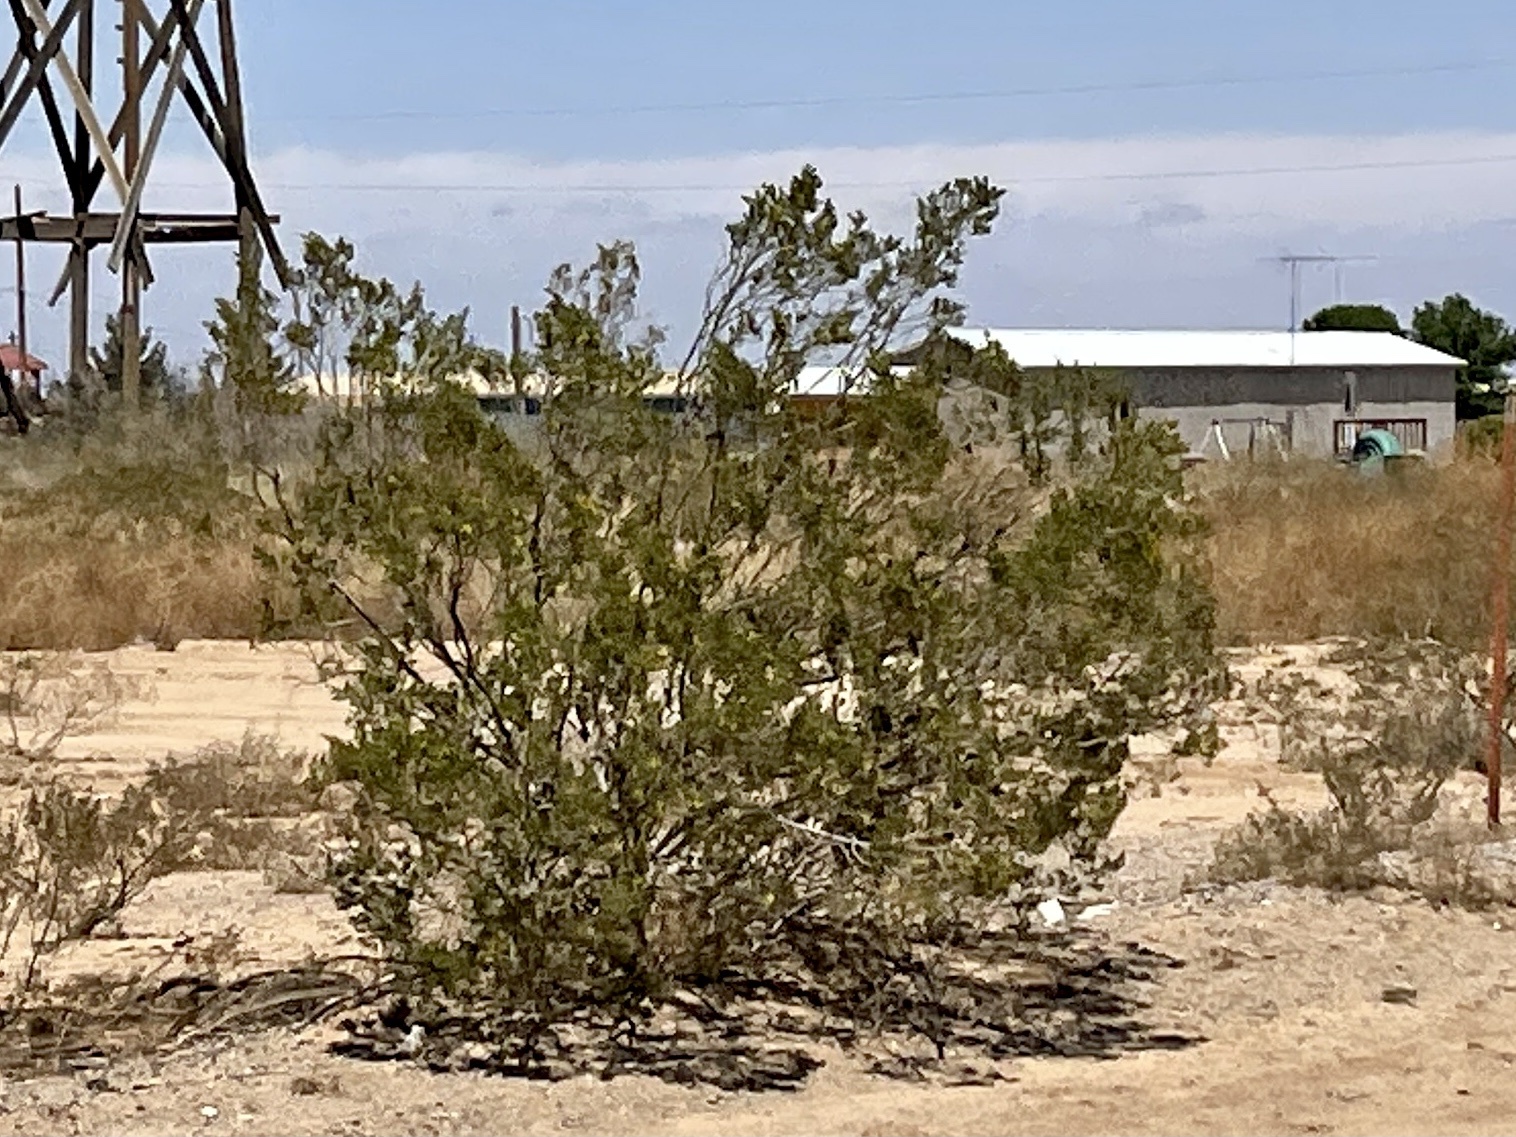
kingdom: Plantae
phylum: Tracheophyta
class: Magnoliopsida
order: Zygophyllales
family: Zygophyllaceae
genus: Larrea
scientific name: Larrea tridentata
